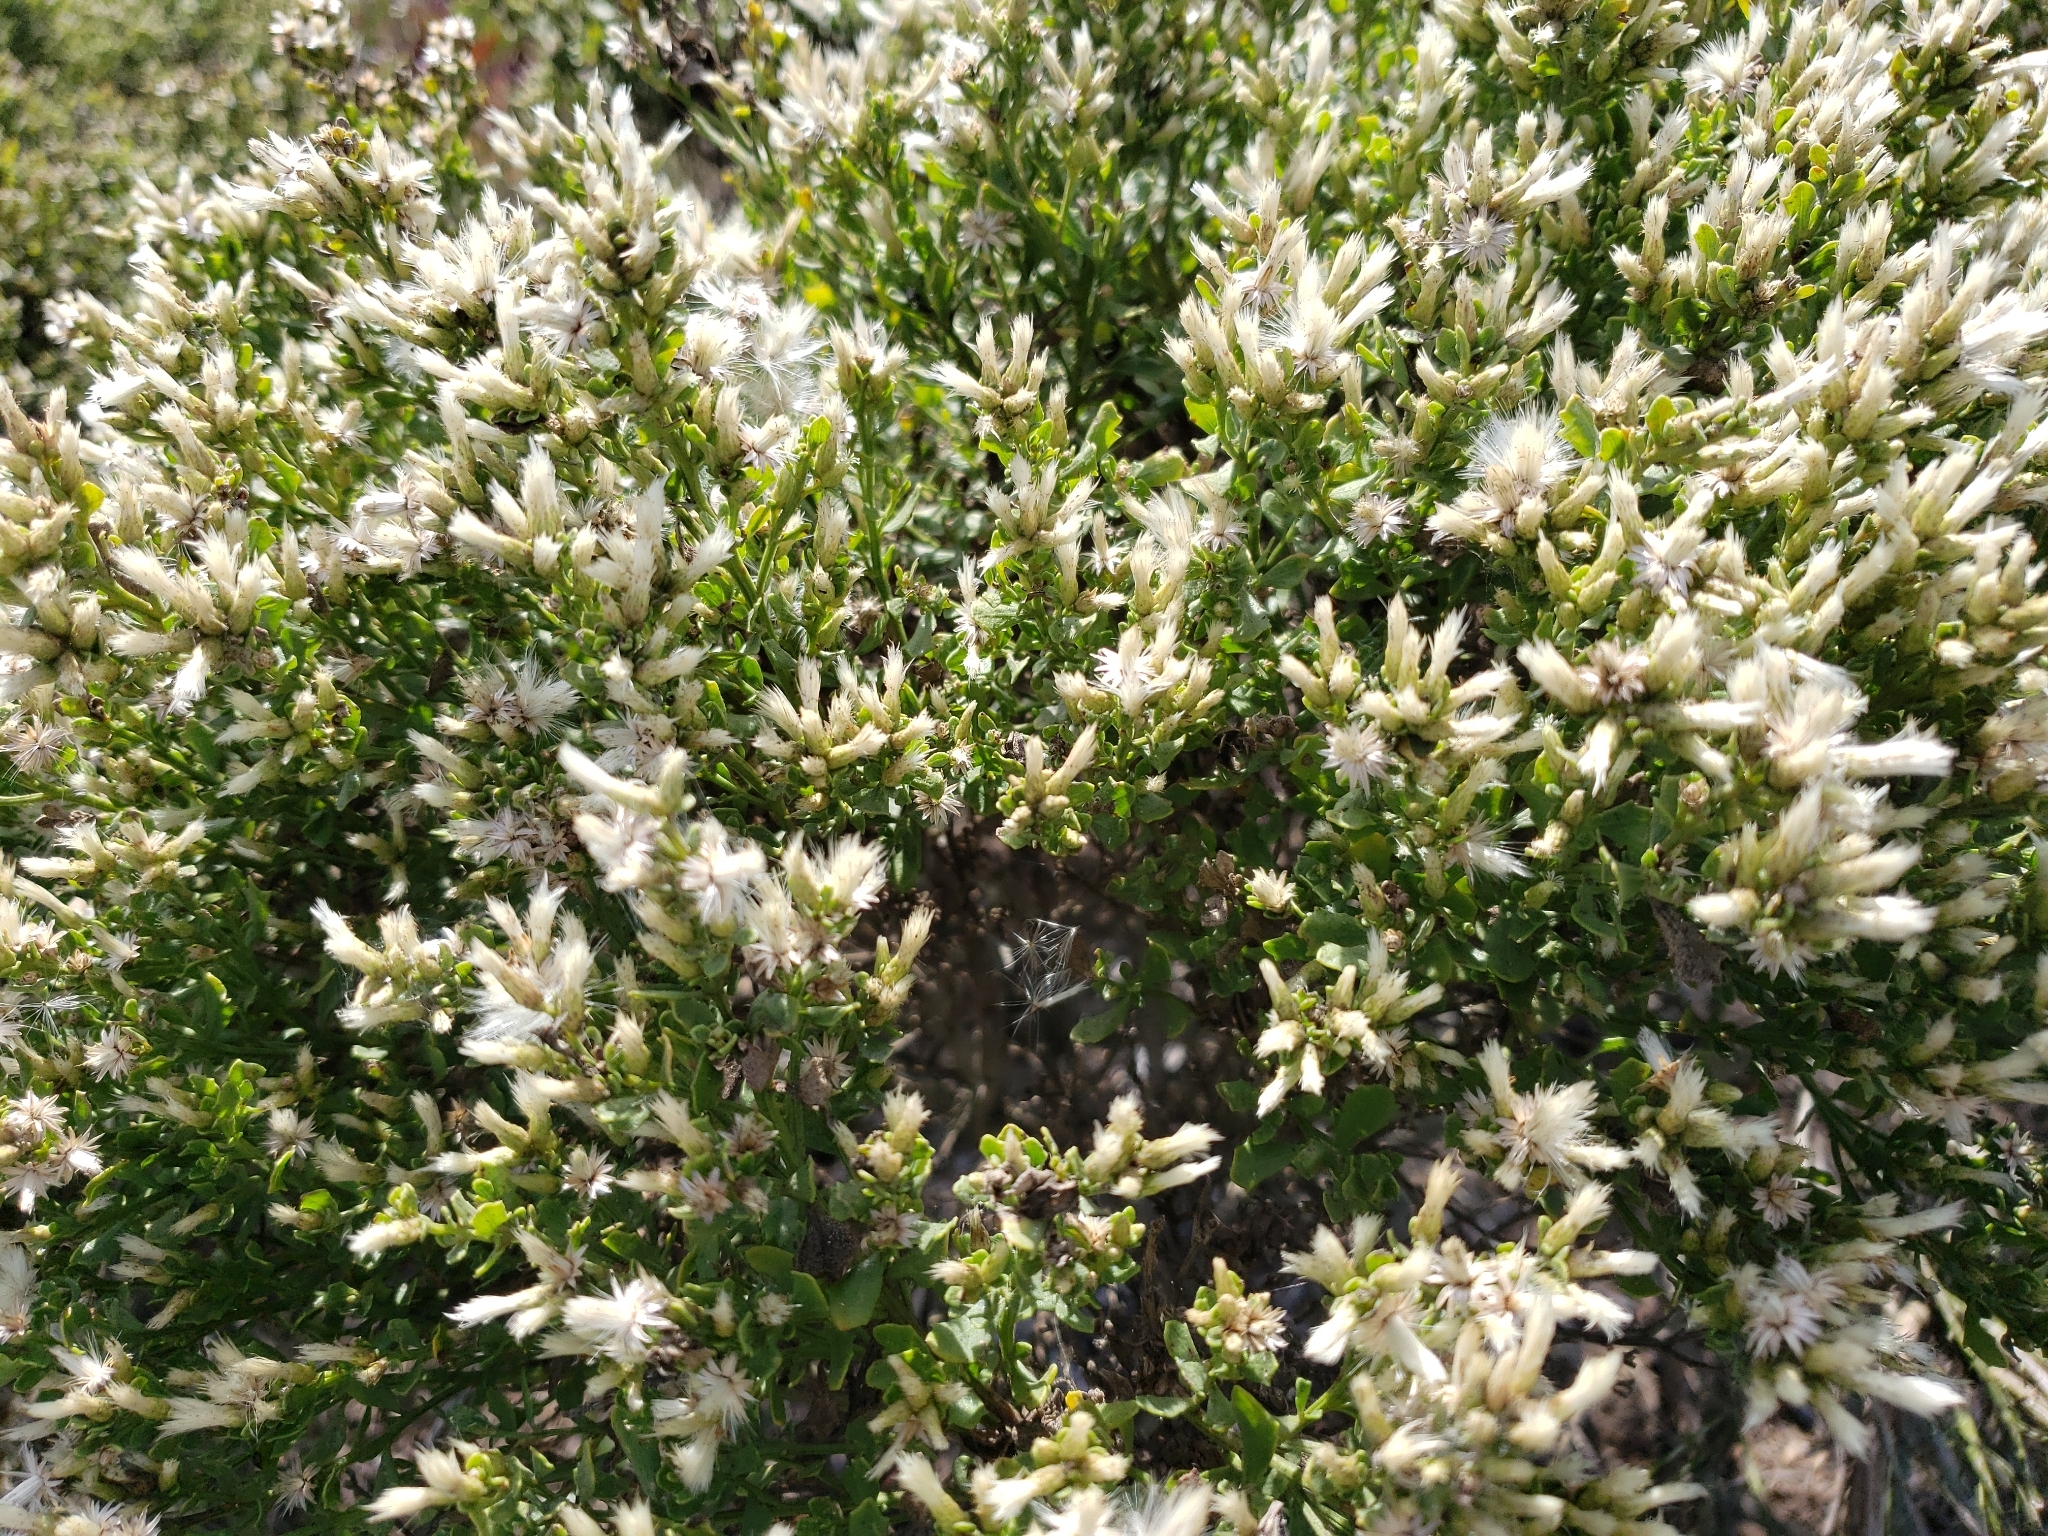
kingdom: Plantae
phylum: Tracheophyta
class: Magnoliopsida
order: Asterales
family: Asteraceae
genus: Baccharis
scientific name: Baccharis pilularis
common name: Coyotebrush
